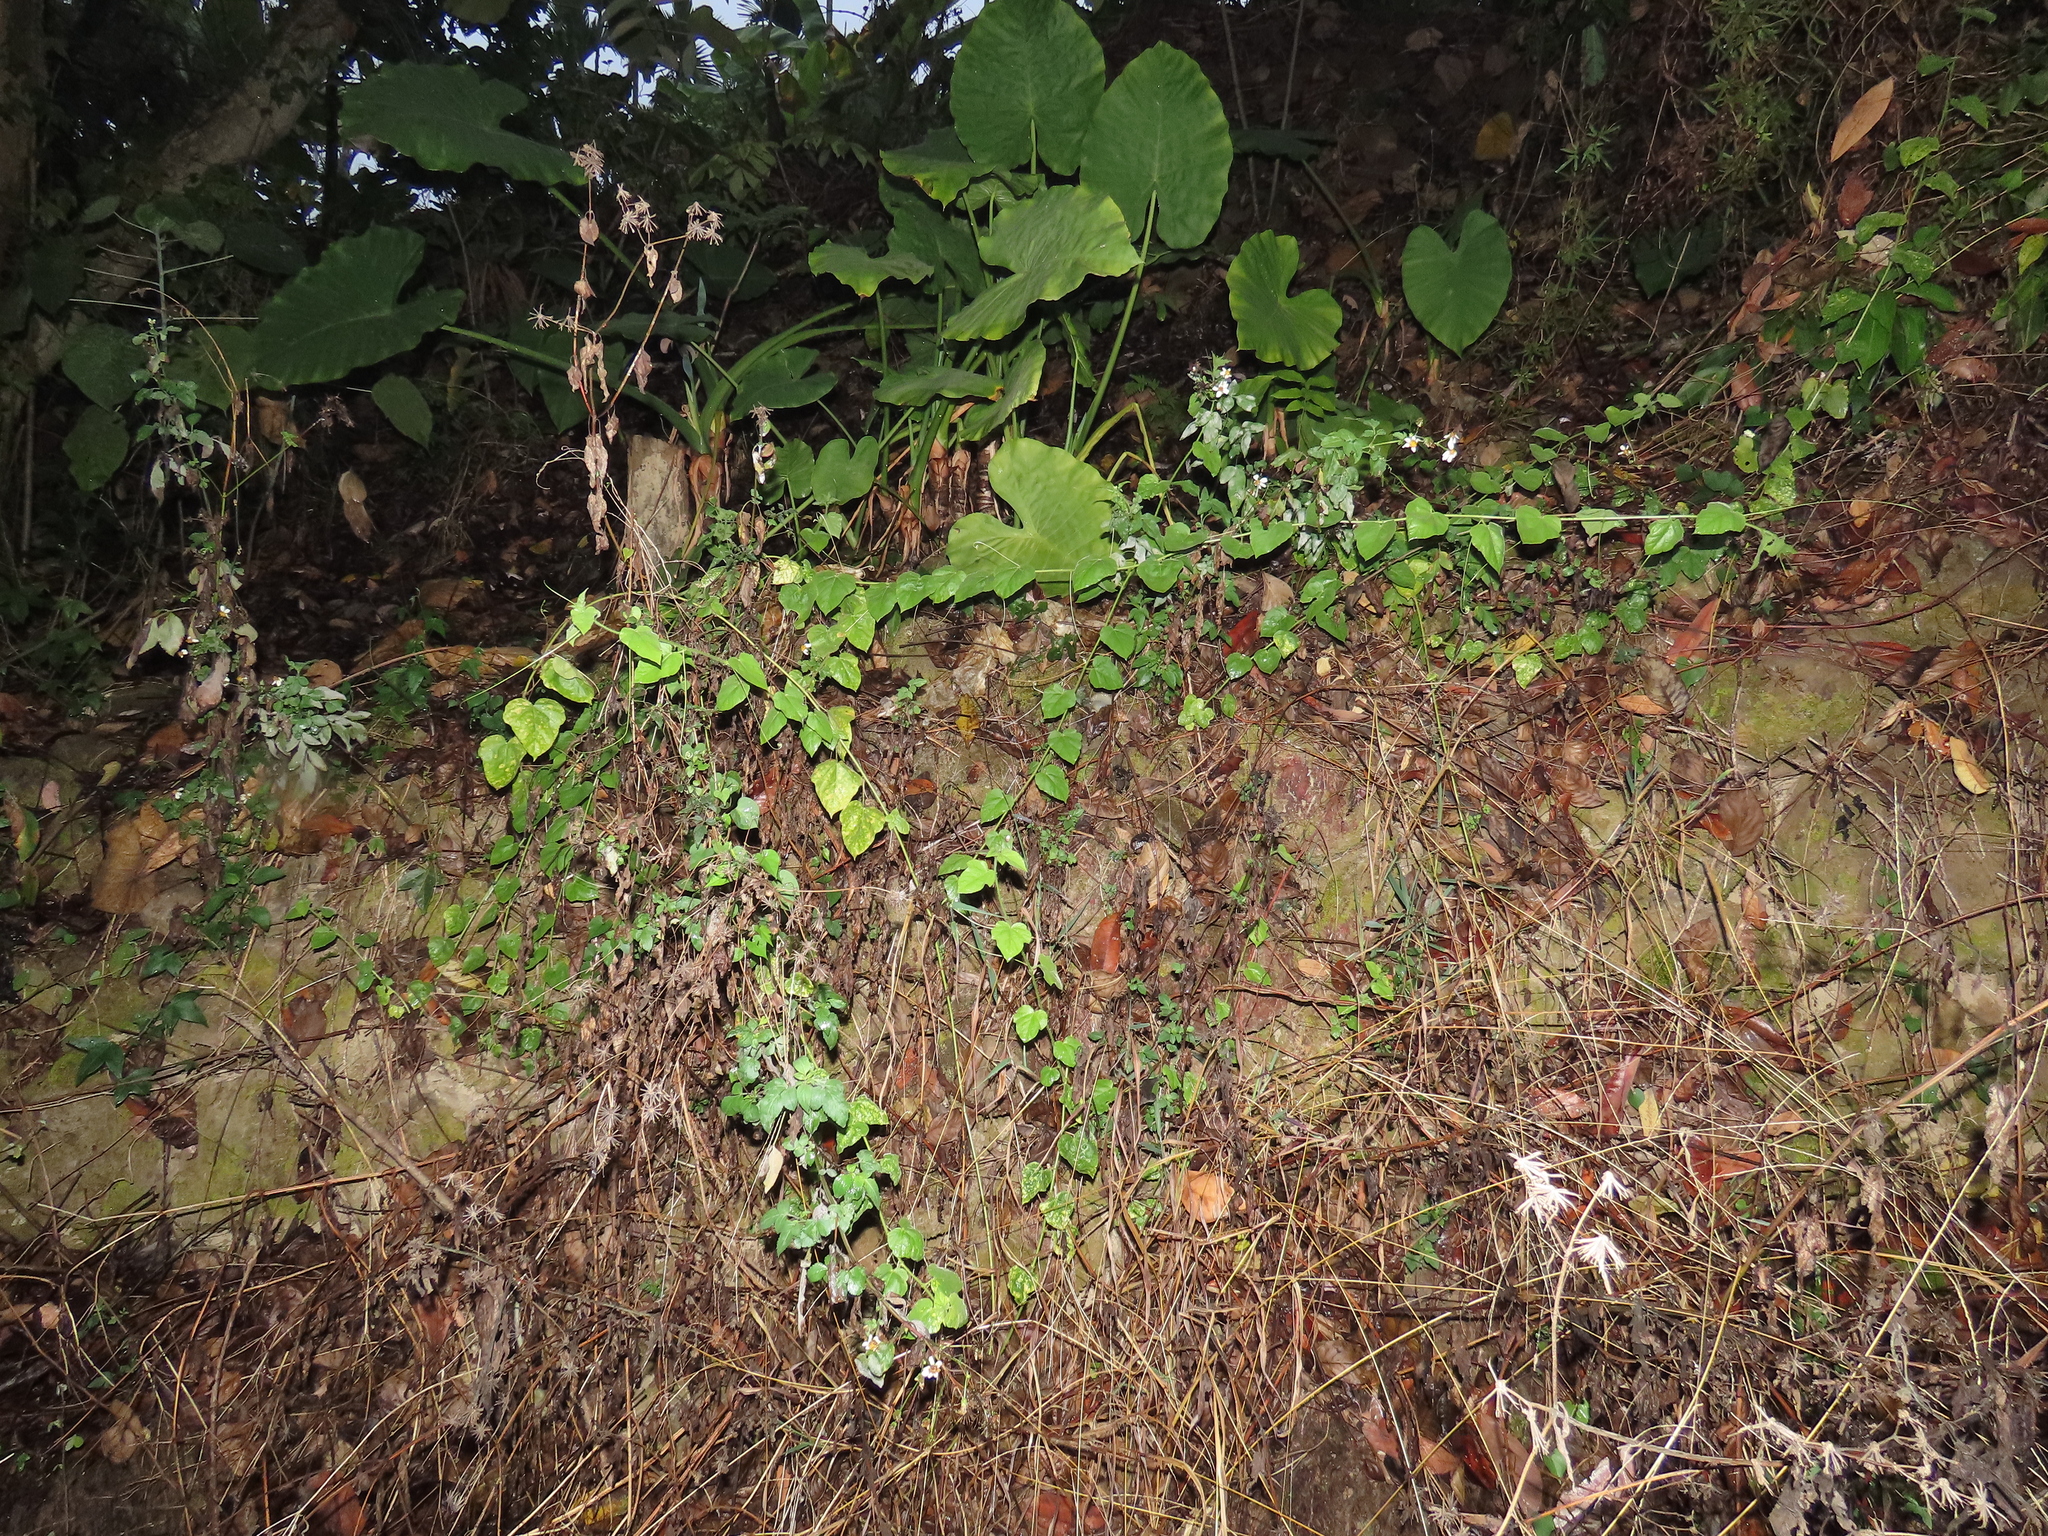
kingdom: Plantae
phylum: Tracheophyta
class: Magnoliopsida
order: Malpighiales
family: Passifloraceae
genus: Passiflora
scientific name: Passiflora vesicaria
